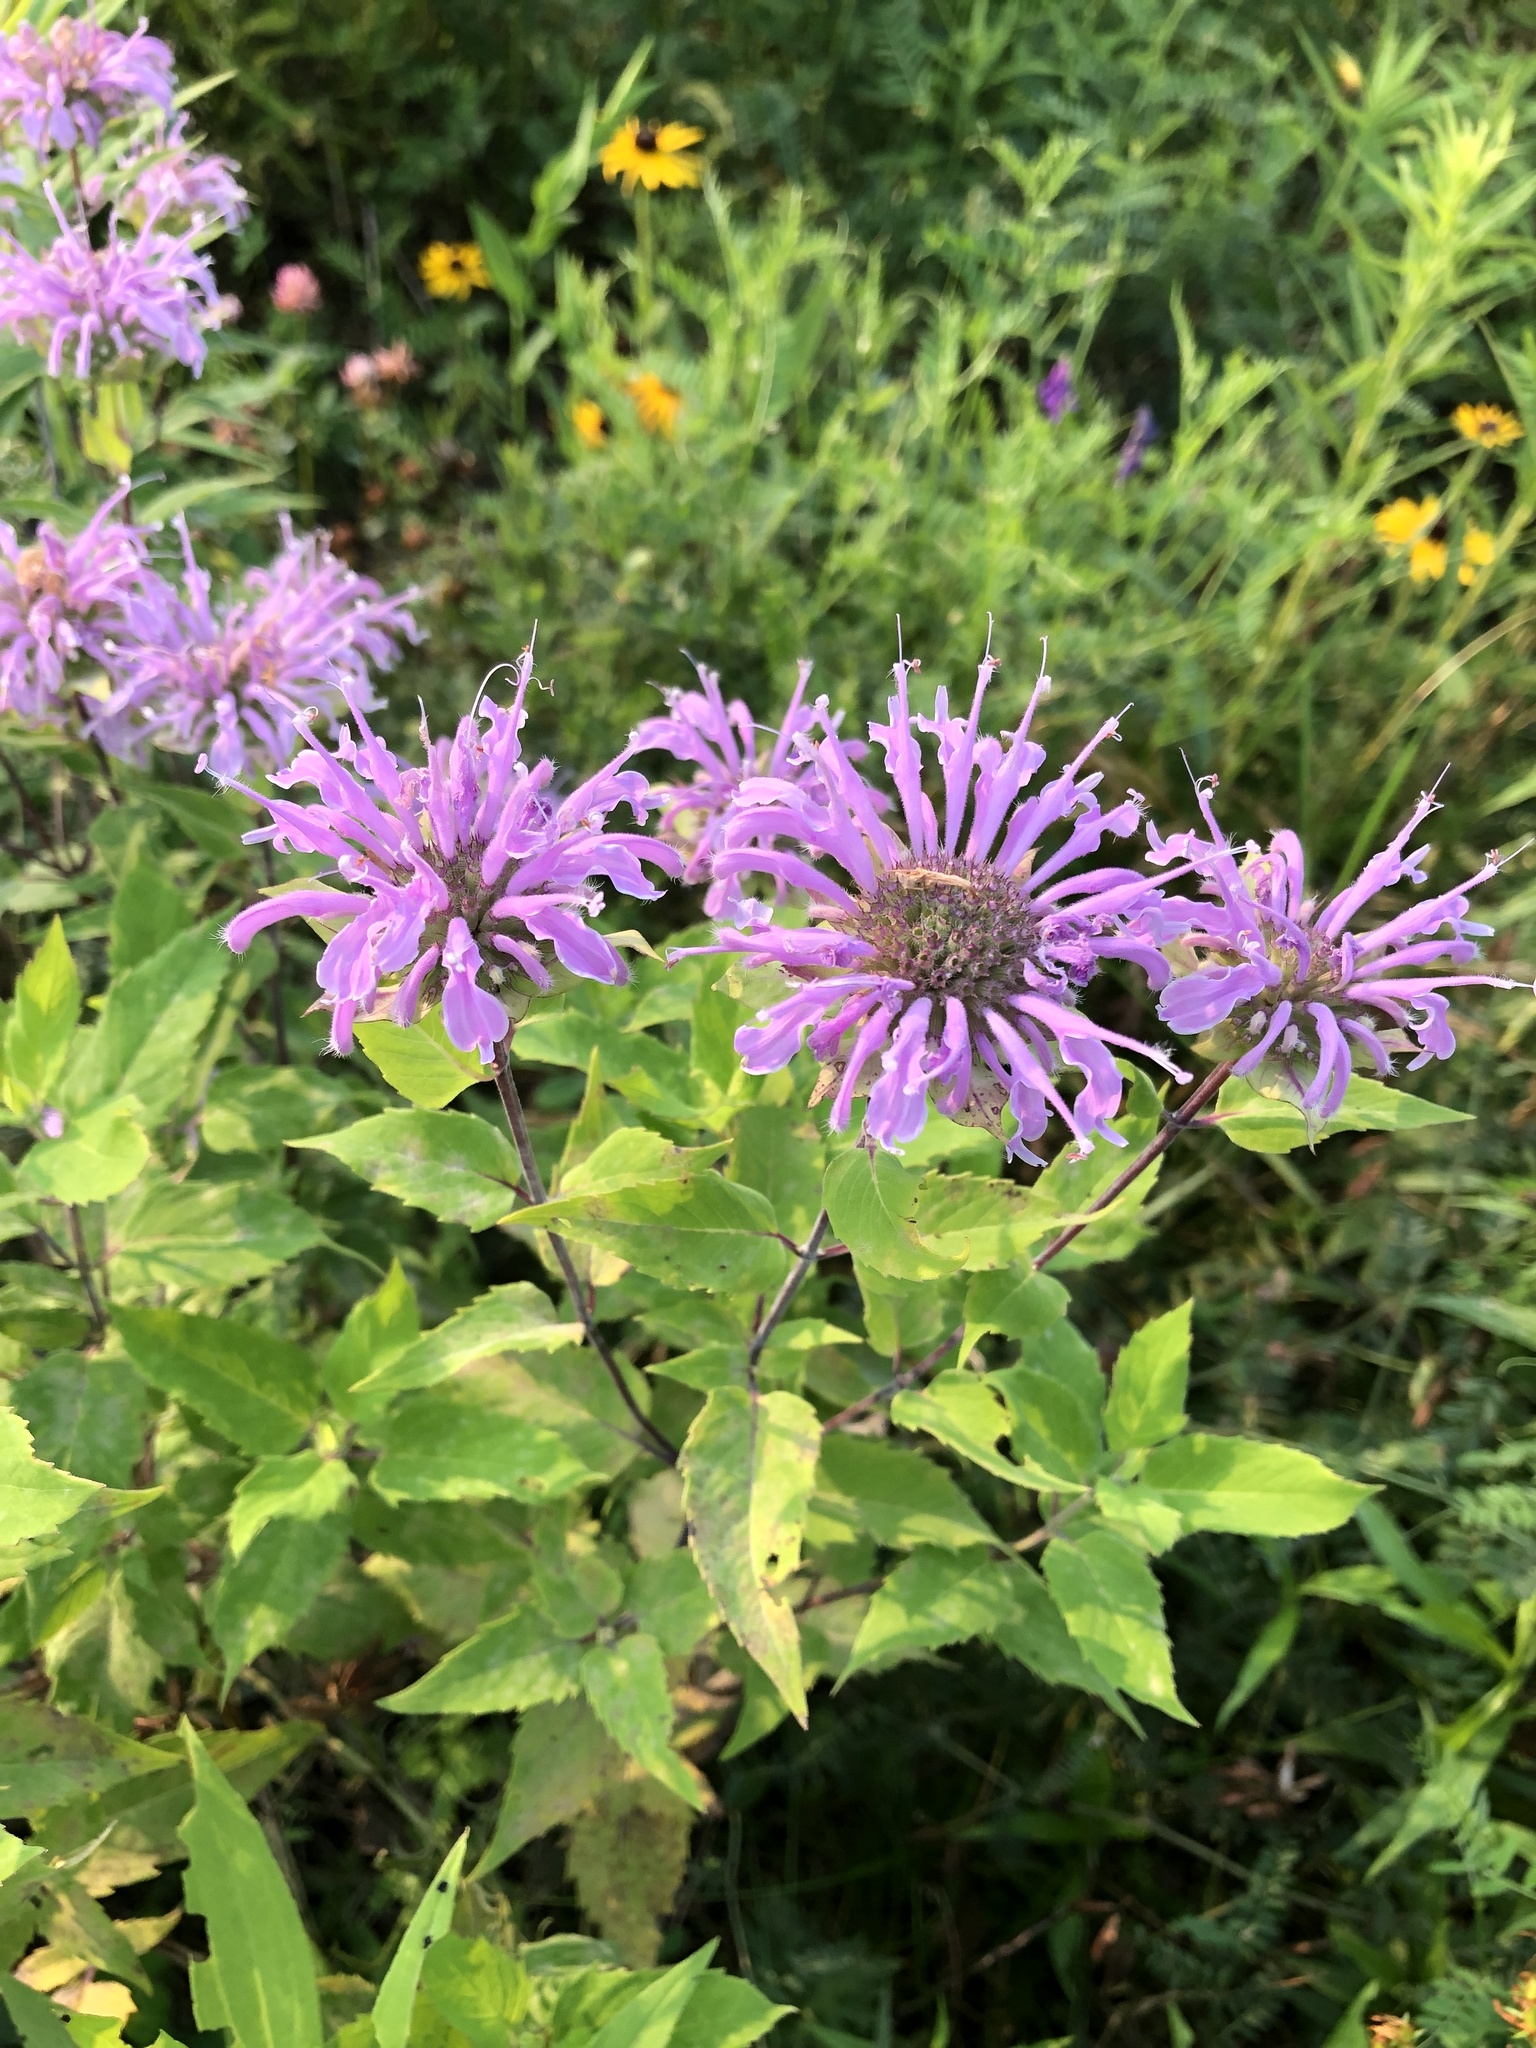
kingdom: Plantae
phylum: Tracheophyta
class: Magnoliopsida
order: Lamiales
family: Lamiaceae
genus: Monarda
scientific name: Monarda fistulosa
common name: Purple beebalm
